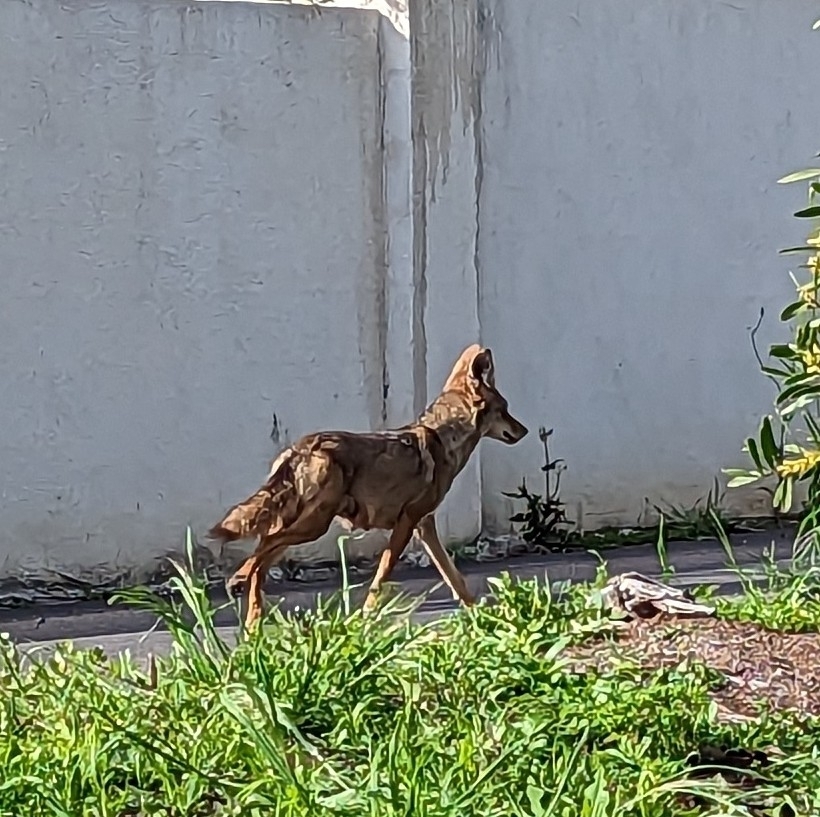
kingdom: Animalia
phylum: Chordata
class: Mammalia
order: Carnivora
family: Canidae
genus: Canis
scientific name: Canis latrans
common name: Coyote
